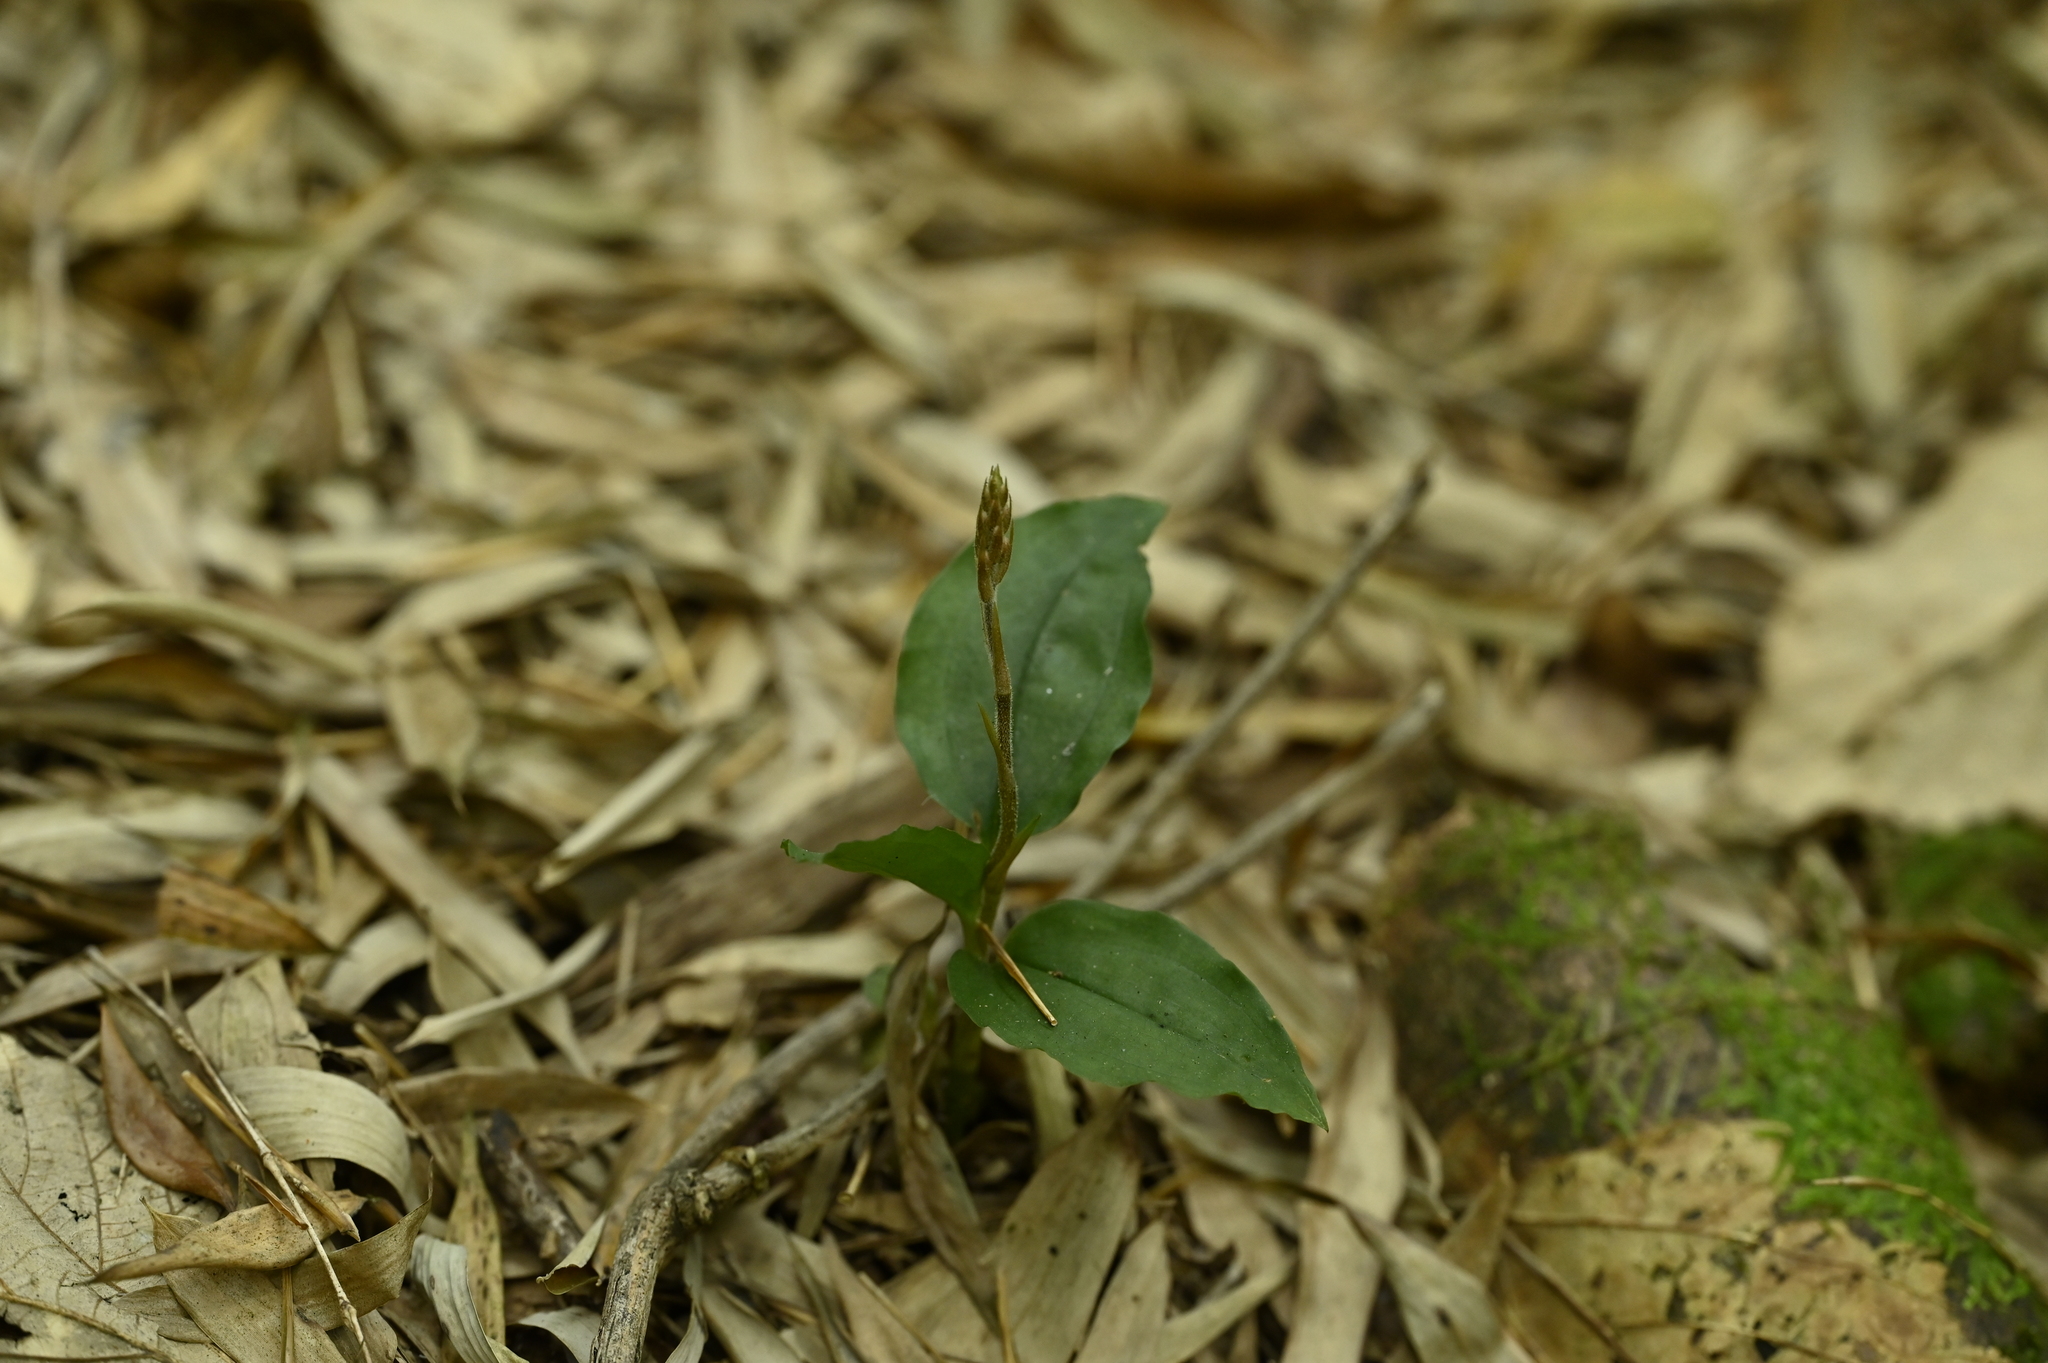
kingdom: Plantae
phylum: Tracheophyta
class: Liliopsida
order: Asparagales
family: Orchidaceae
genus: Erythrodes
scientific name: Erythrodes chinensis
